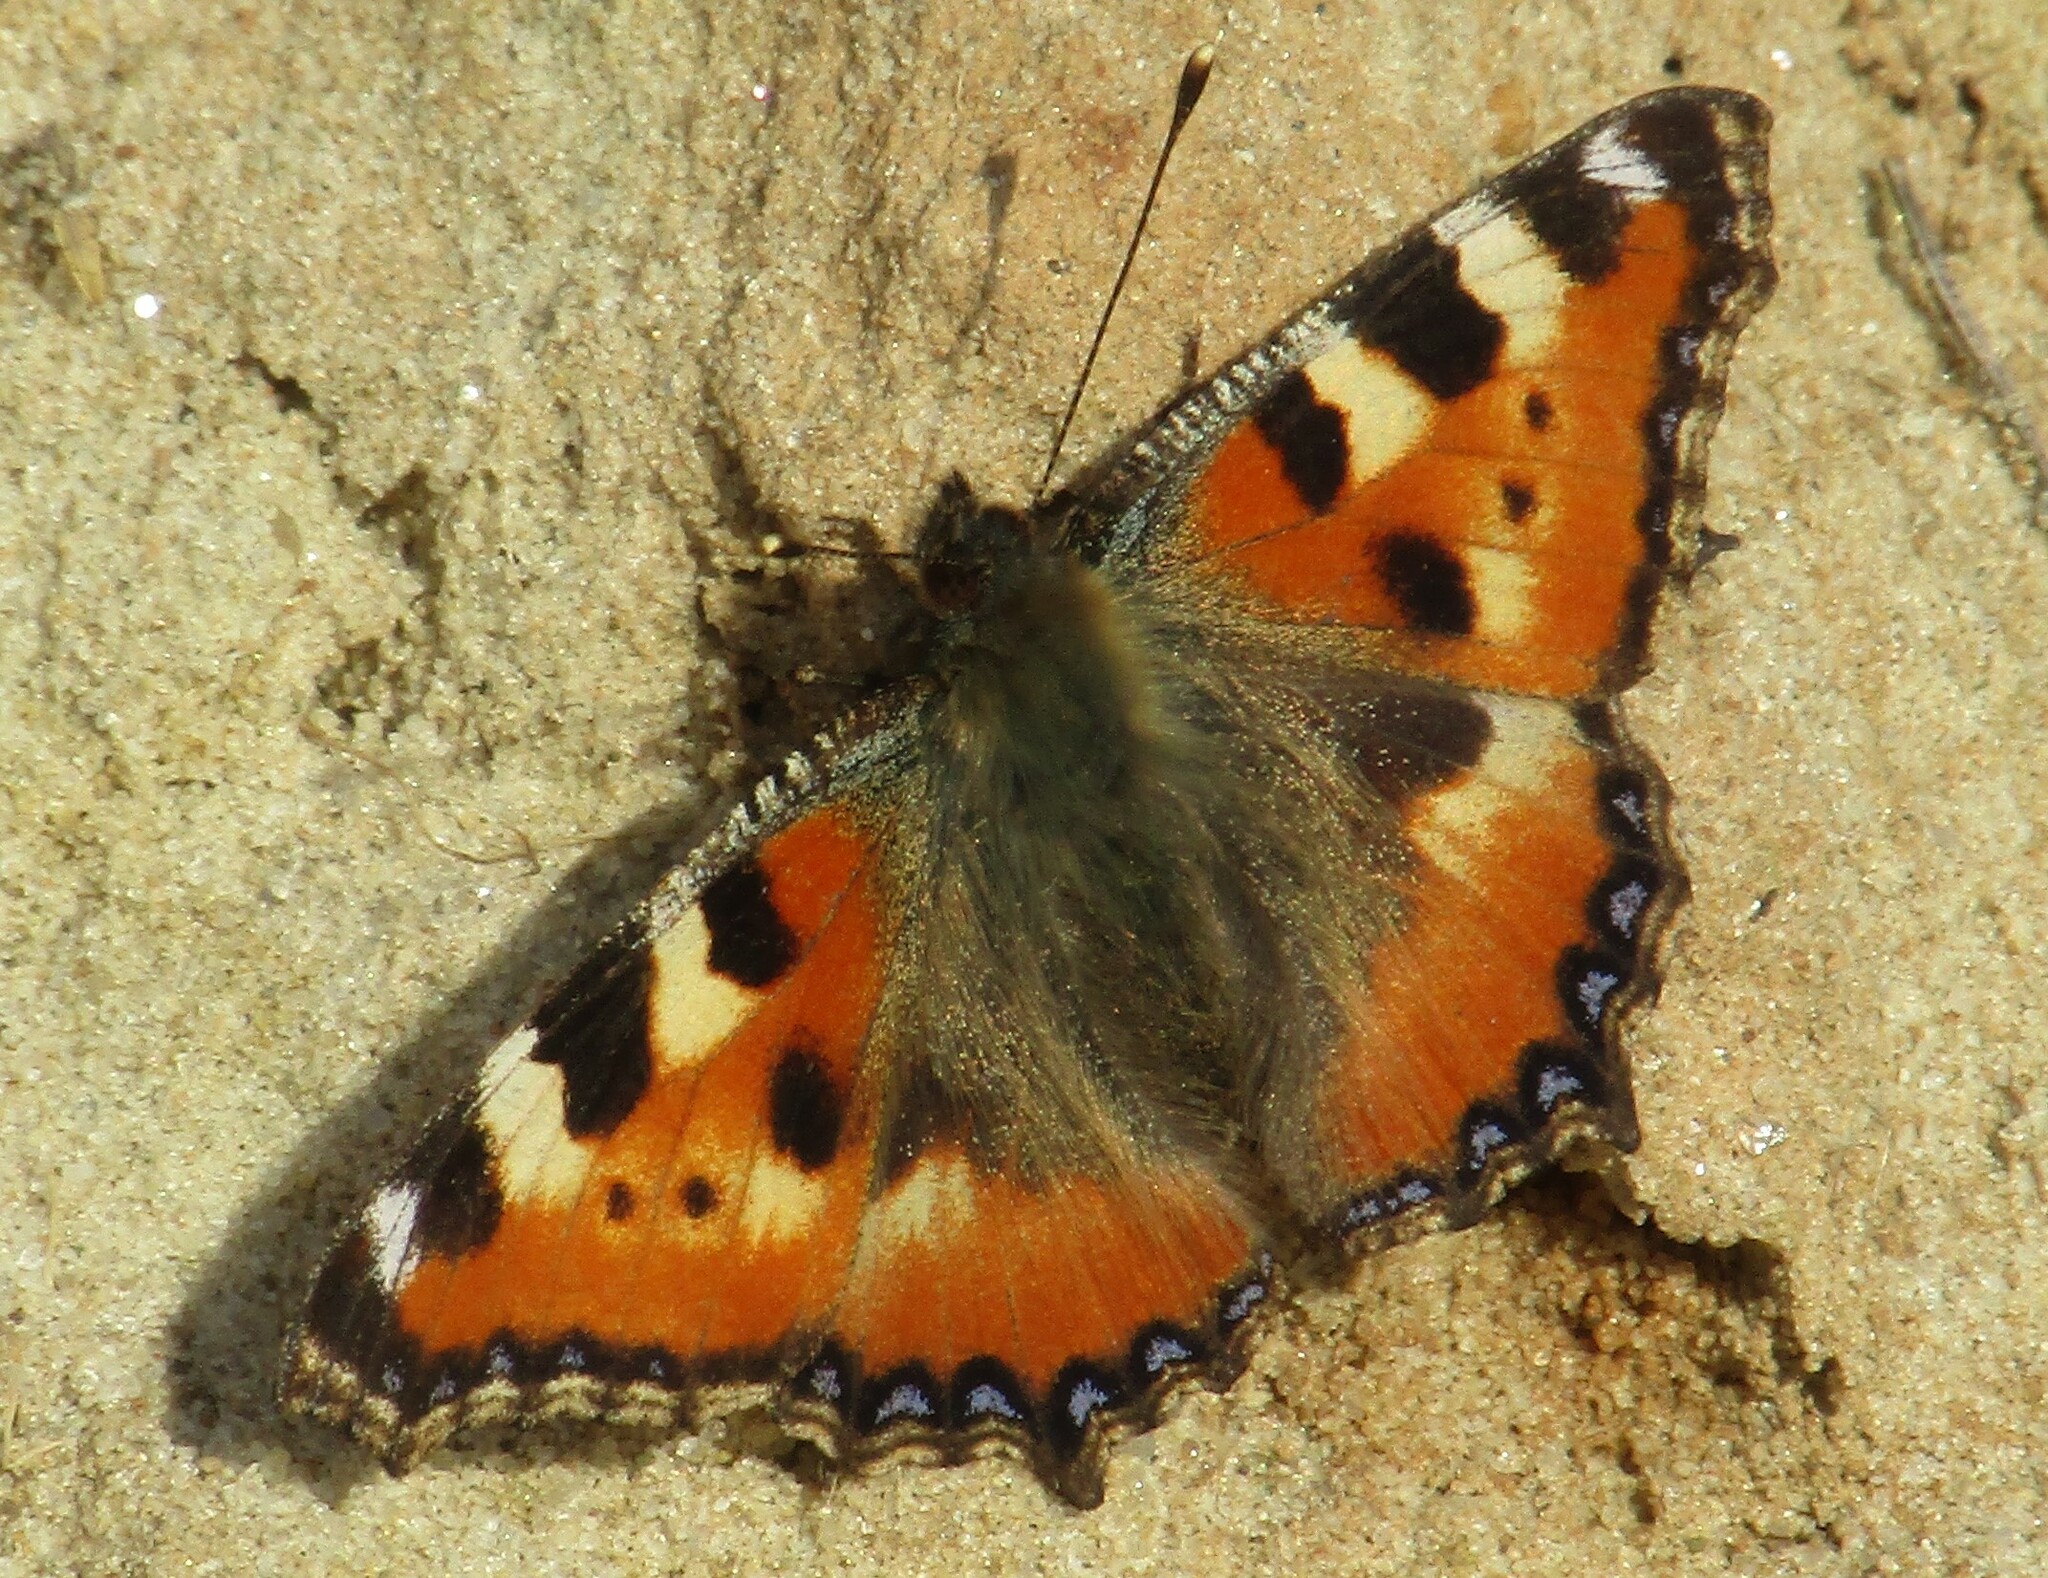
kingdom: Animalia
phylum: Arthropoda
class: Insecta
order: Lepidoptera
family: Nymphalidae
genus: Aglais
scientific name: Aglais urticae
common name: Small tortoiseshell
